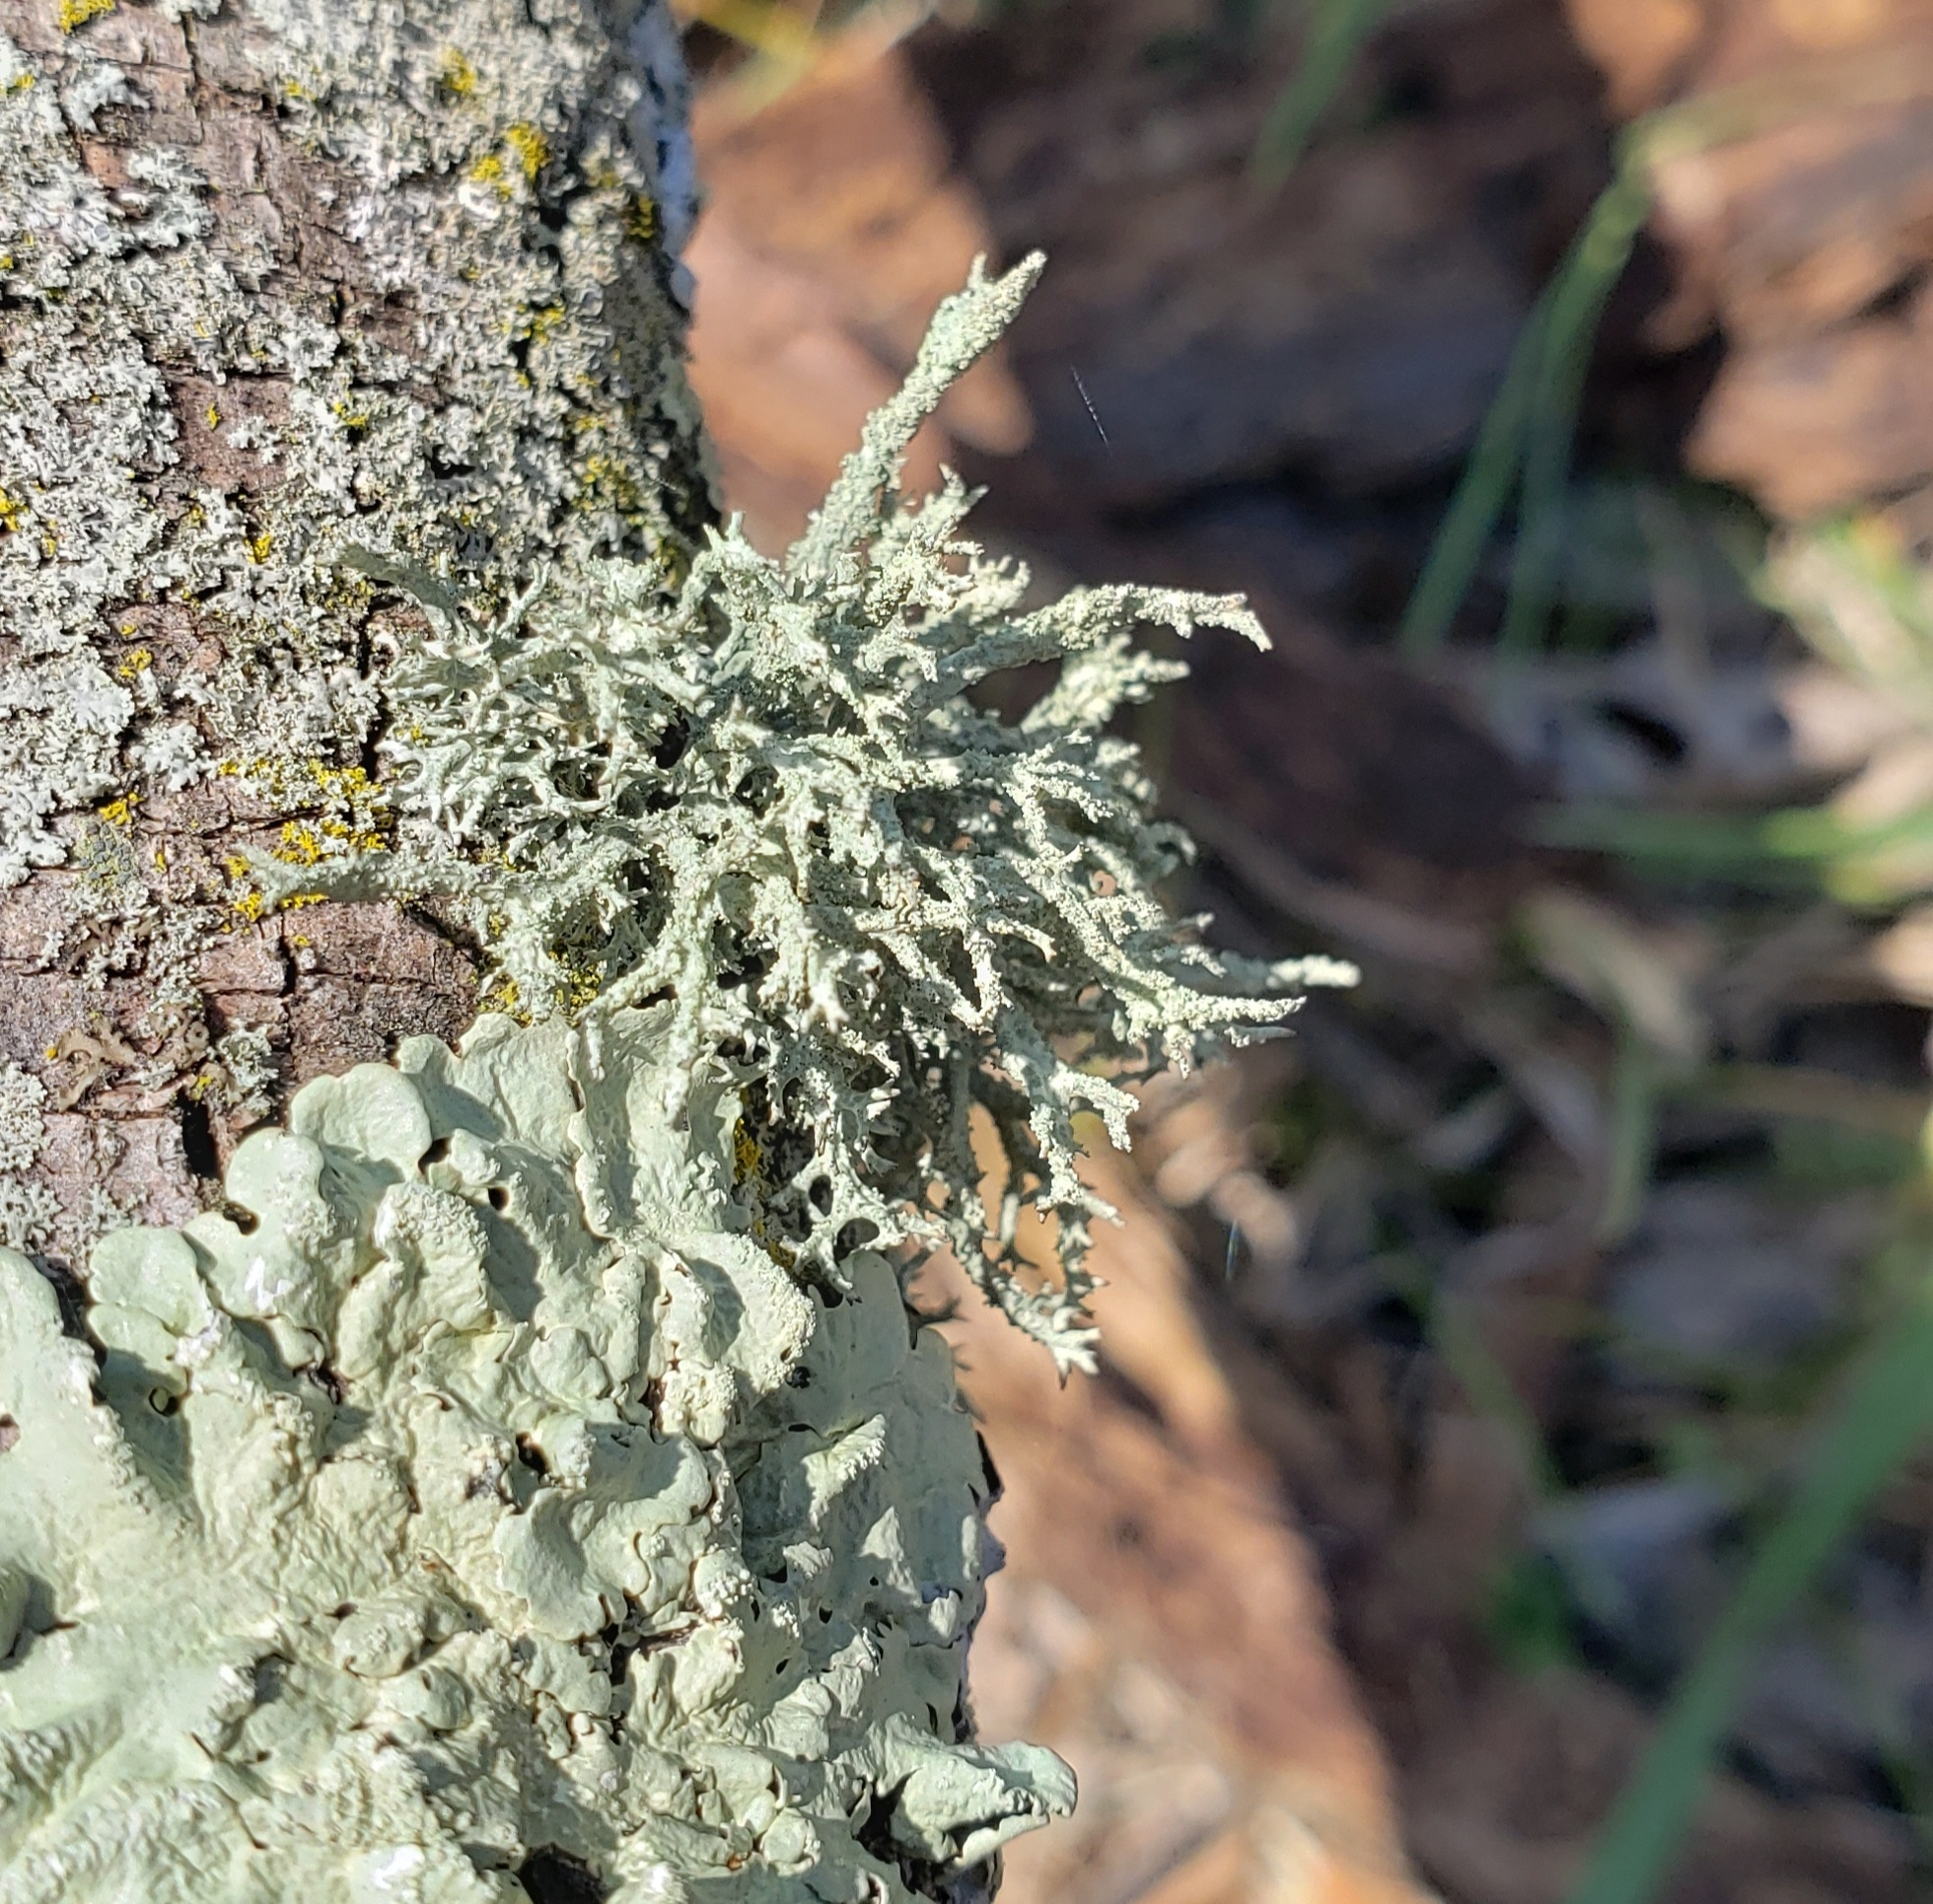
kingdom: Fungi
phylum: Ascomycota
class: Lecanoromycetes
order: Lecanorales
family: Parmeliaceae
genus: Evernia
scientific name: Evernia mesomorpha
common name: Boreal oak moss lichen
